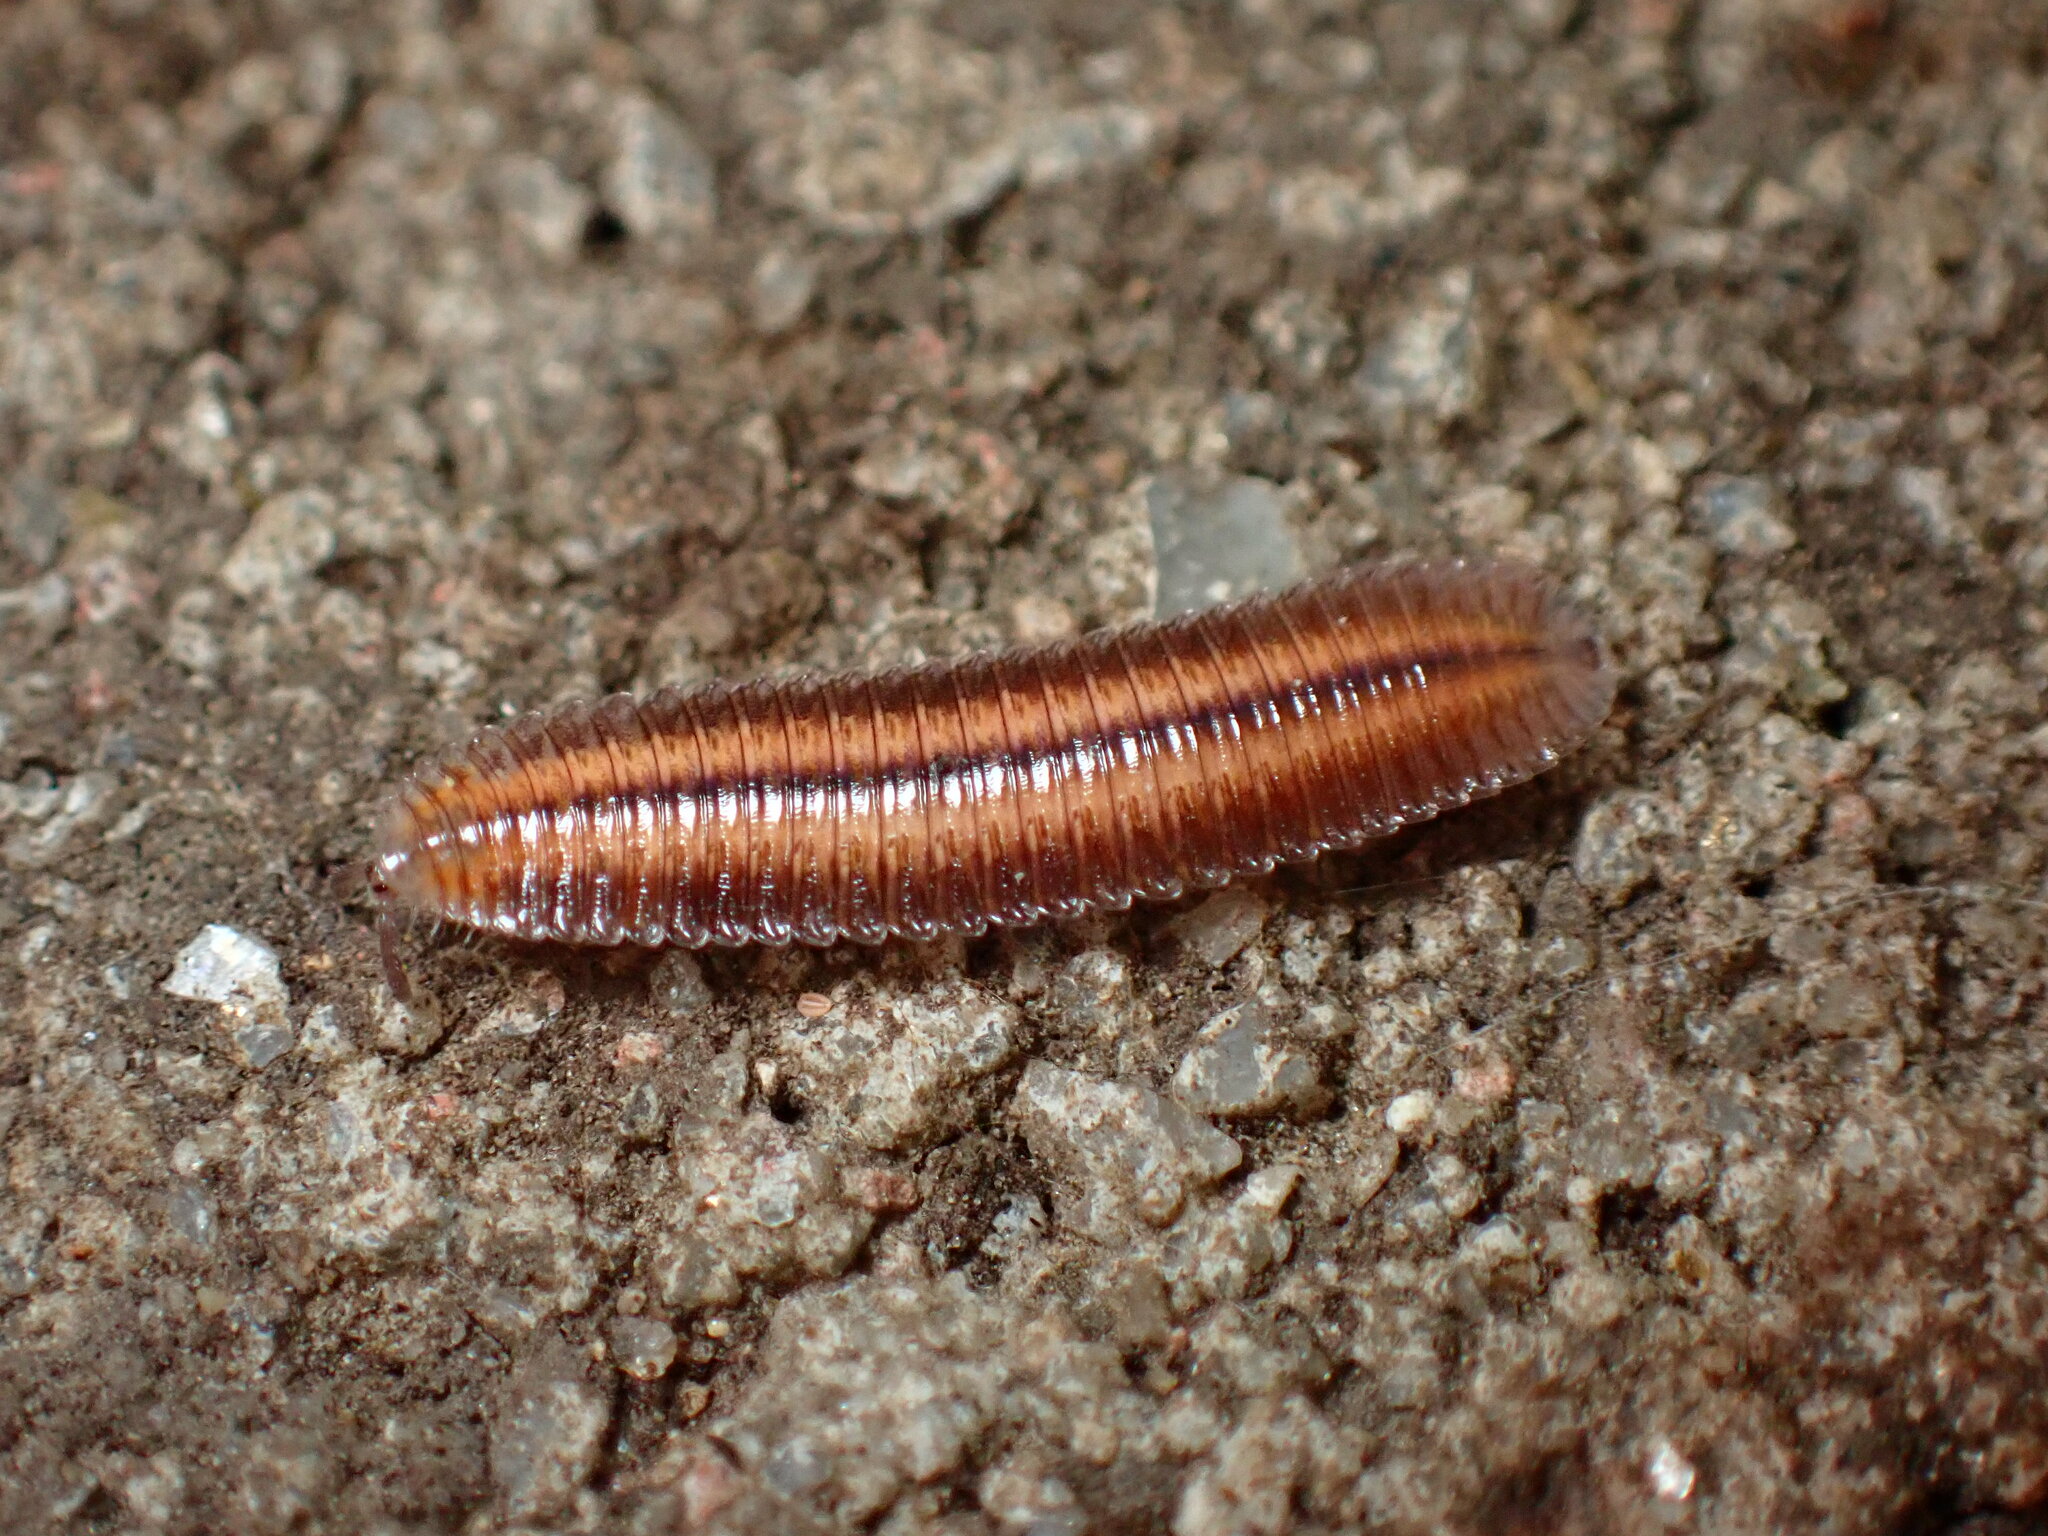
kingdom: Animalia
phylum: Arthropoda
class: Diplopoda
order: Polyzoniida
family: Hirudisomatidae
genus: Octoglena
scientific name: Octoglena bivirgatum
